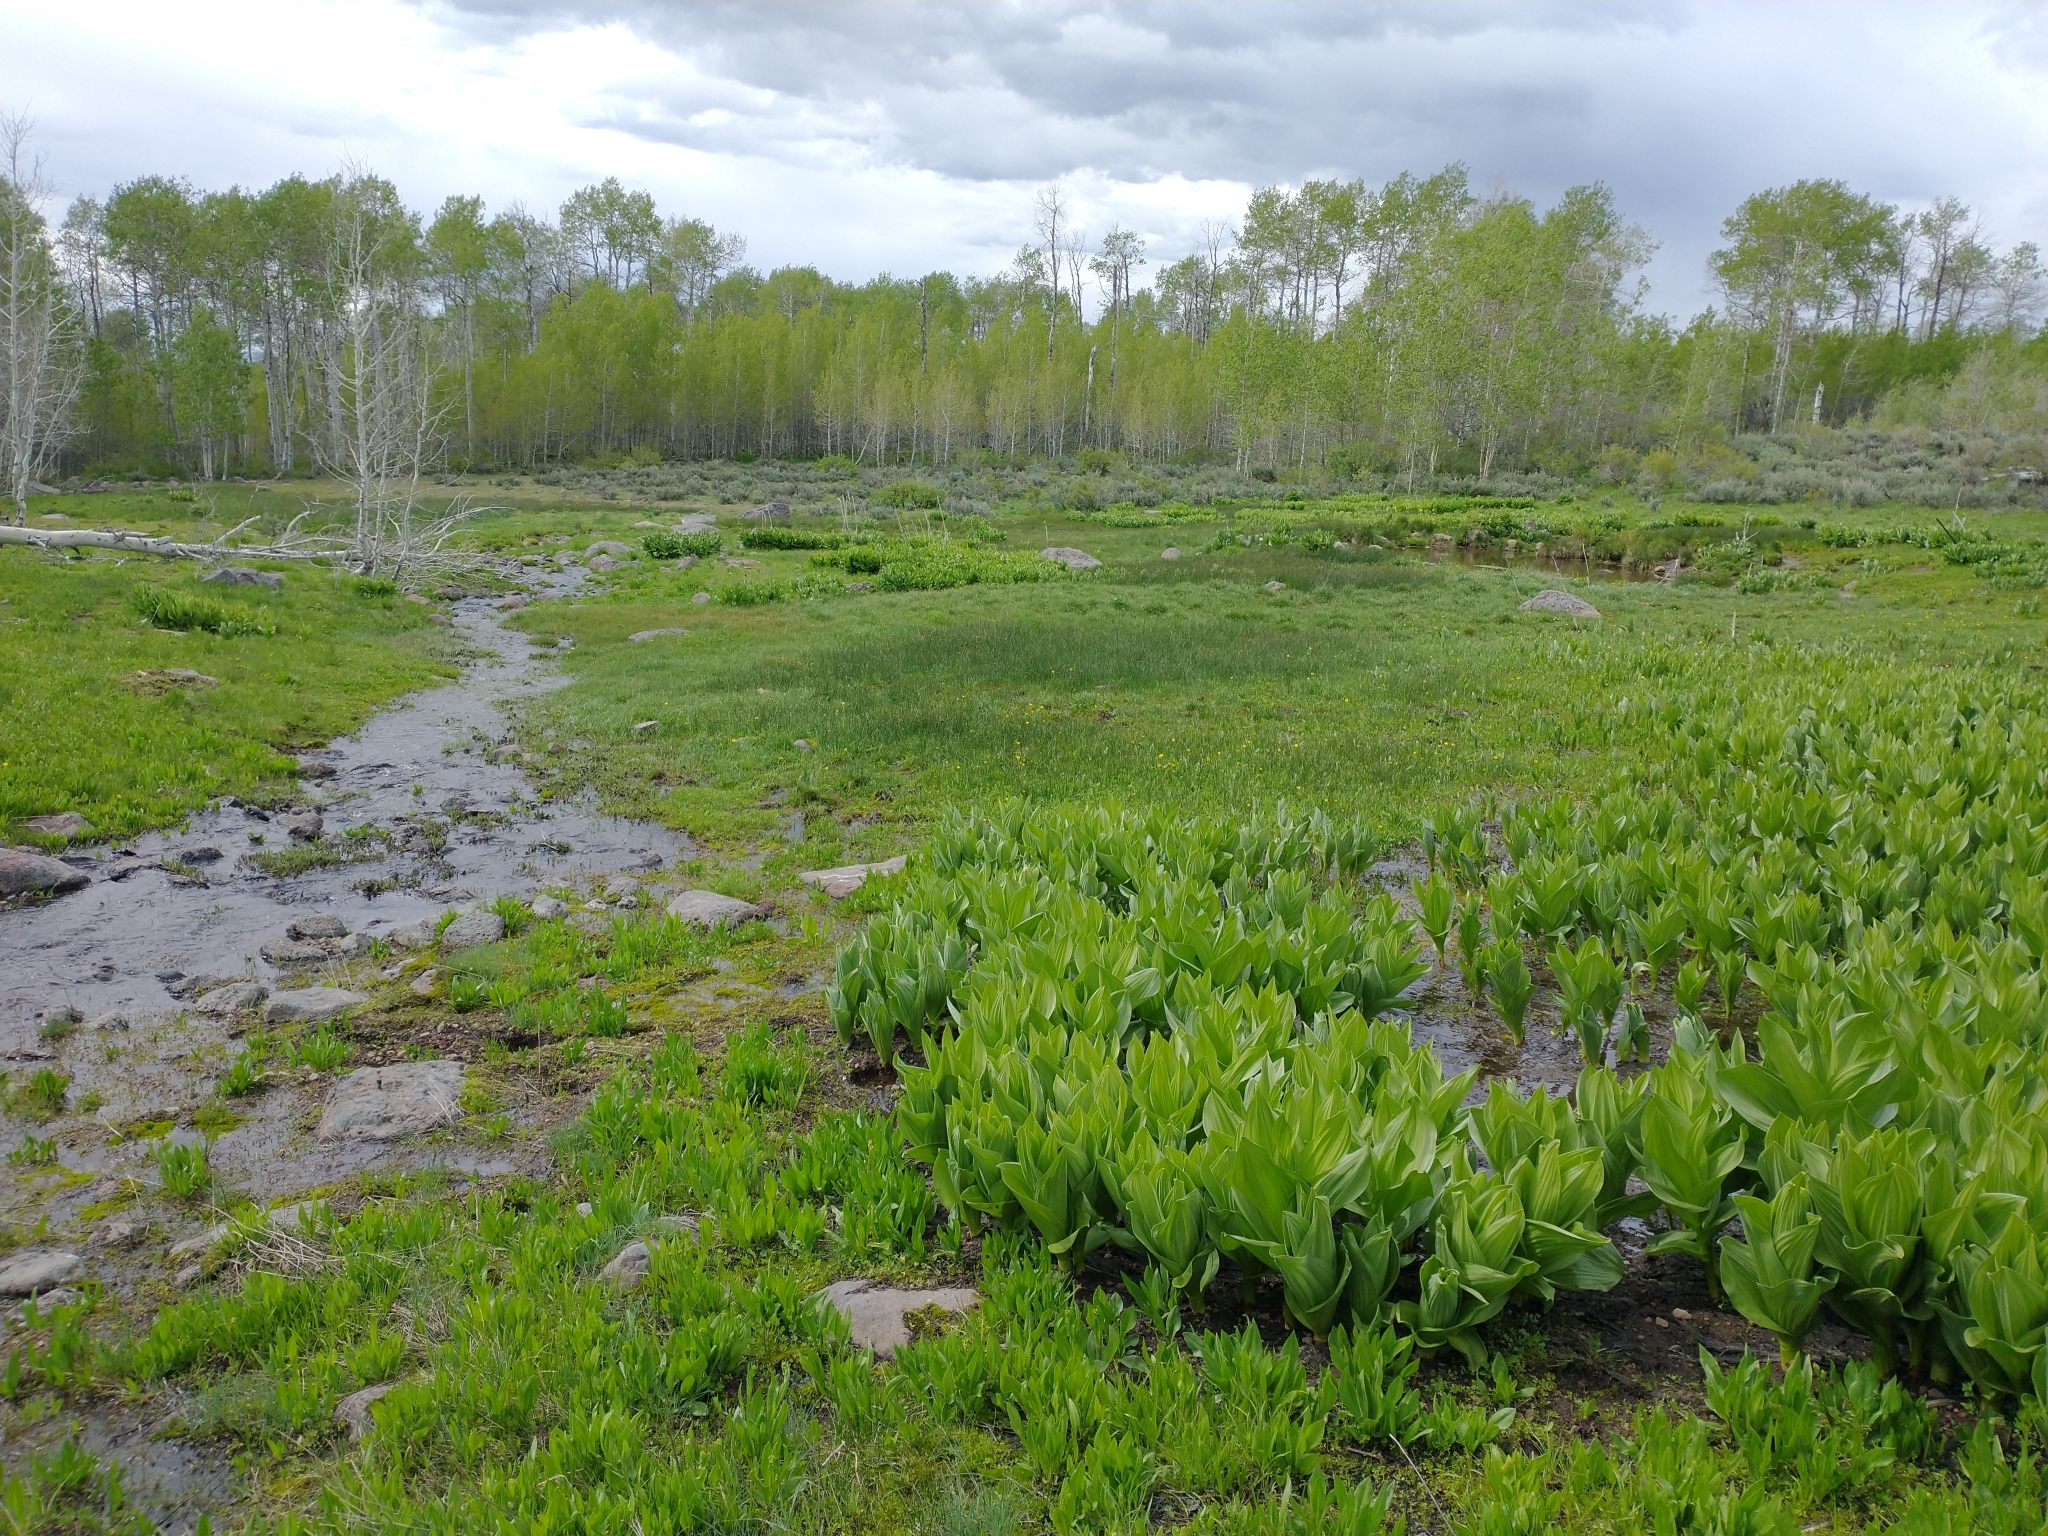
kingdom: Plantae
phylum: Tracheophyta
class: Liliopsida
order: Liliales
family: Melanthiaceae
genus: Veratrum
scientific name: Veratrum californicum
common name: California veratrum
